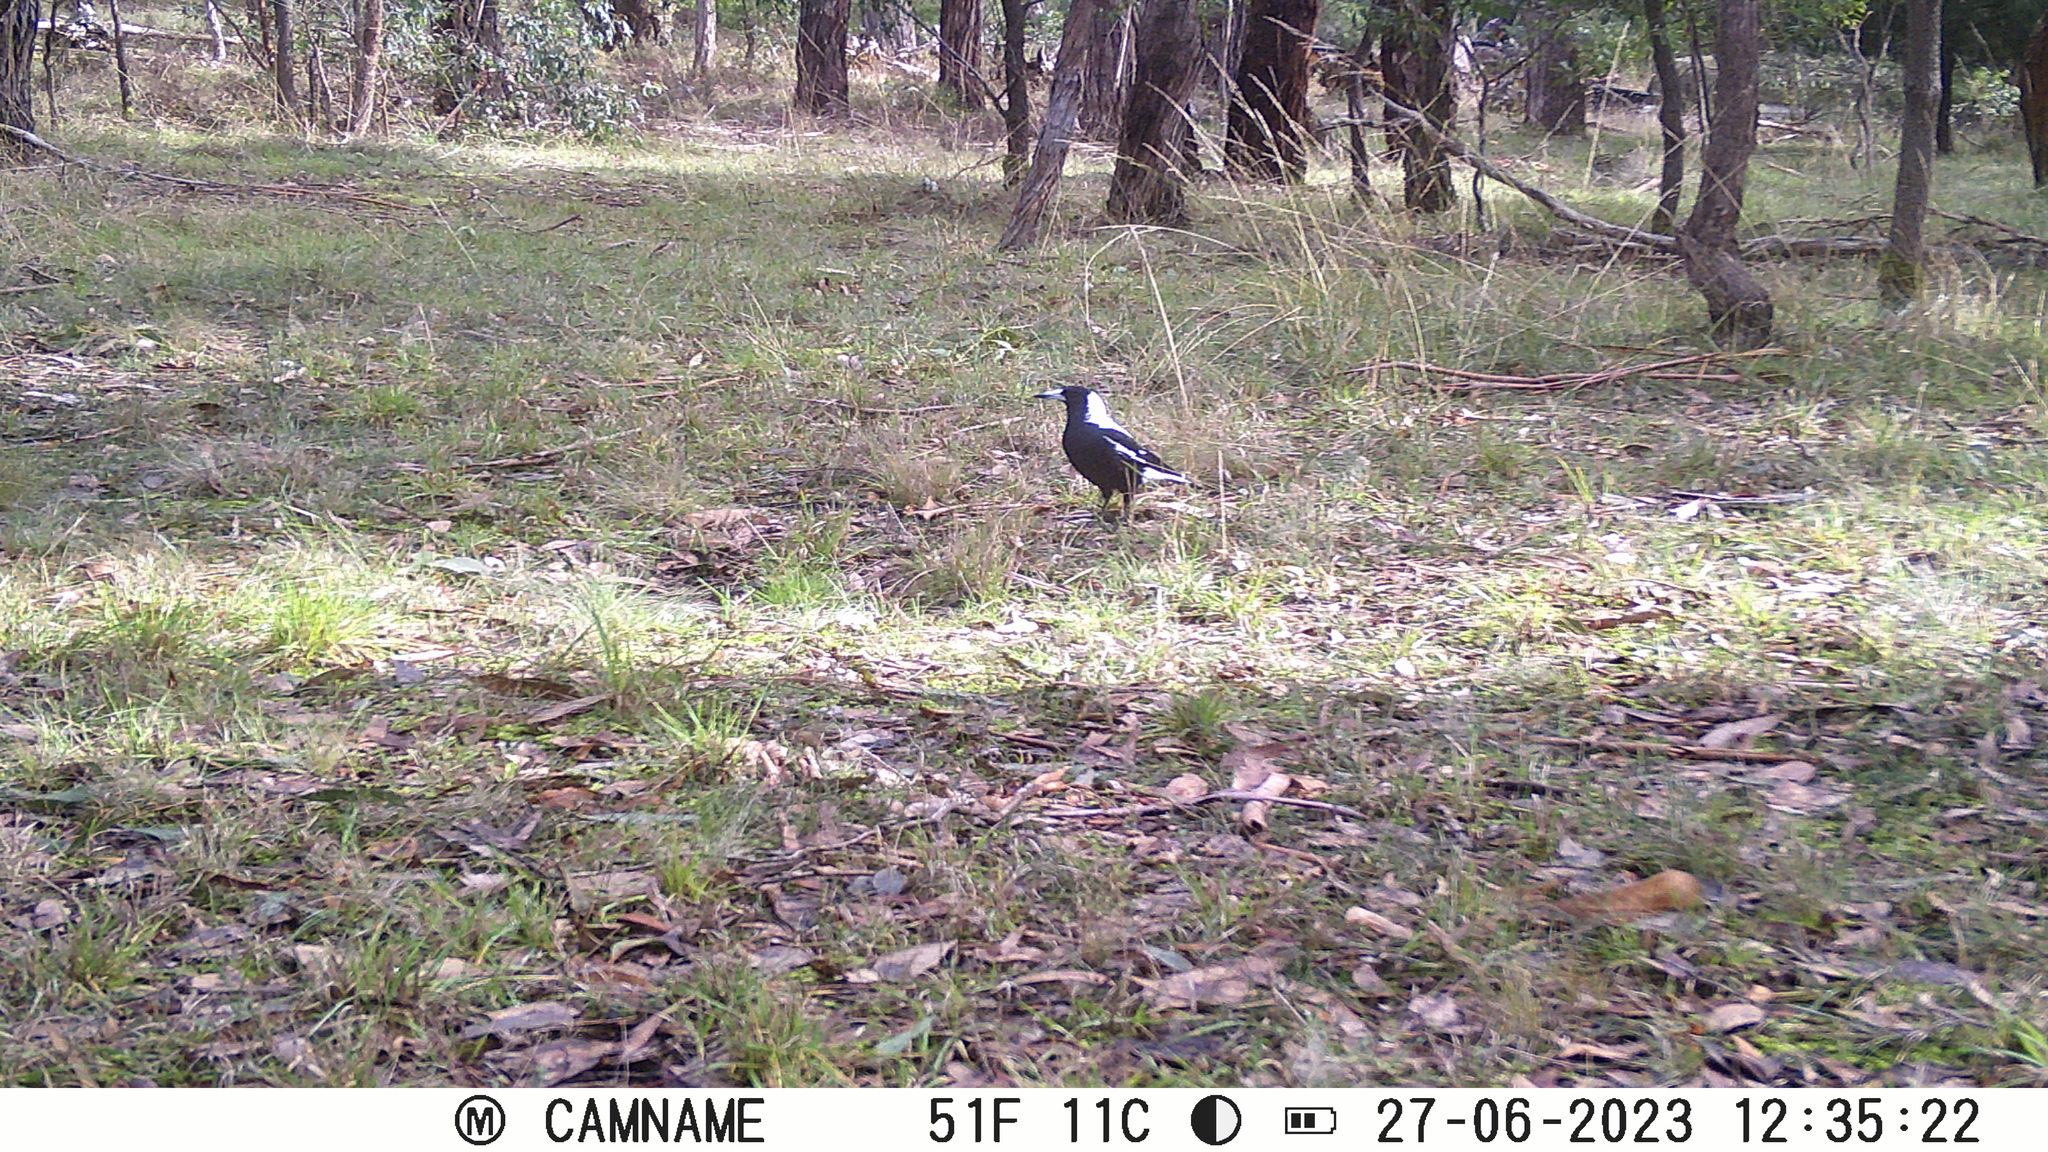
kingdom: Animalia
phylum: Chordata
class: Aves
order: Passeriformes
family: Cracticidae
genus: Gymnorhina
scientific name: Gymnorhina tibicen
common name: Australian magpie
